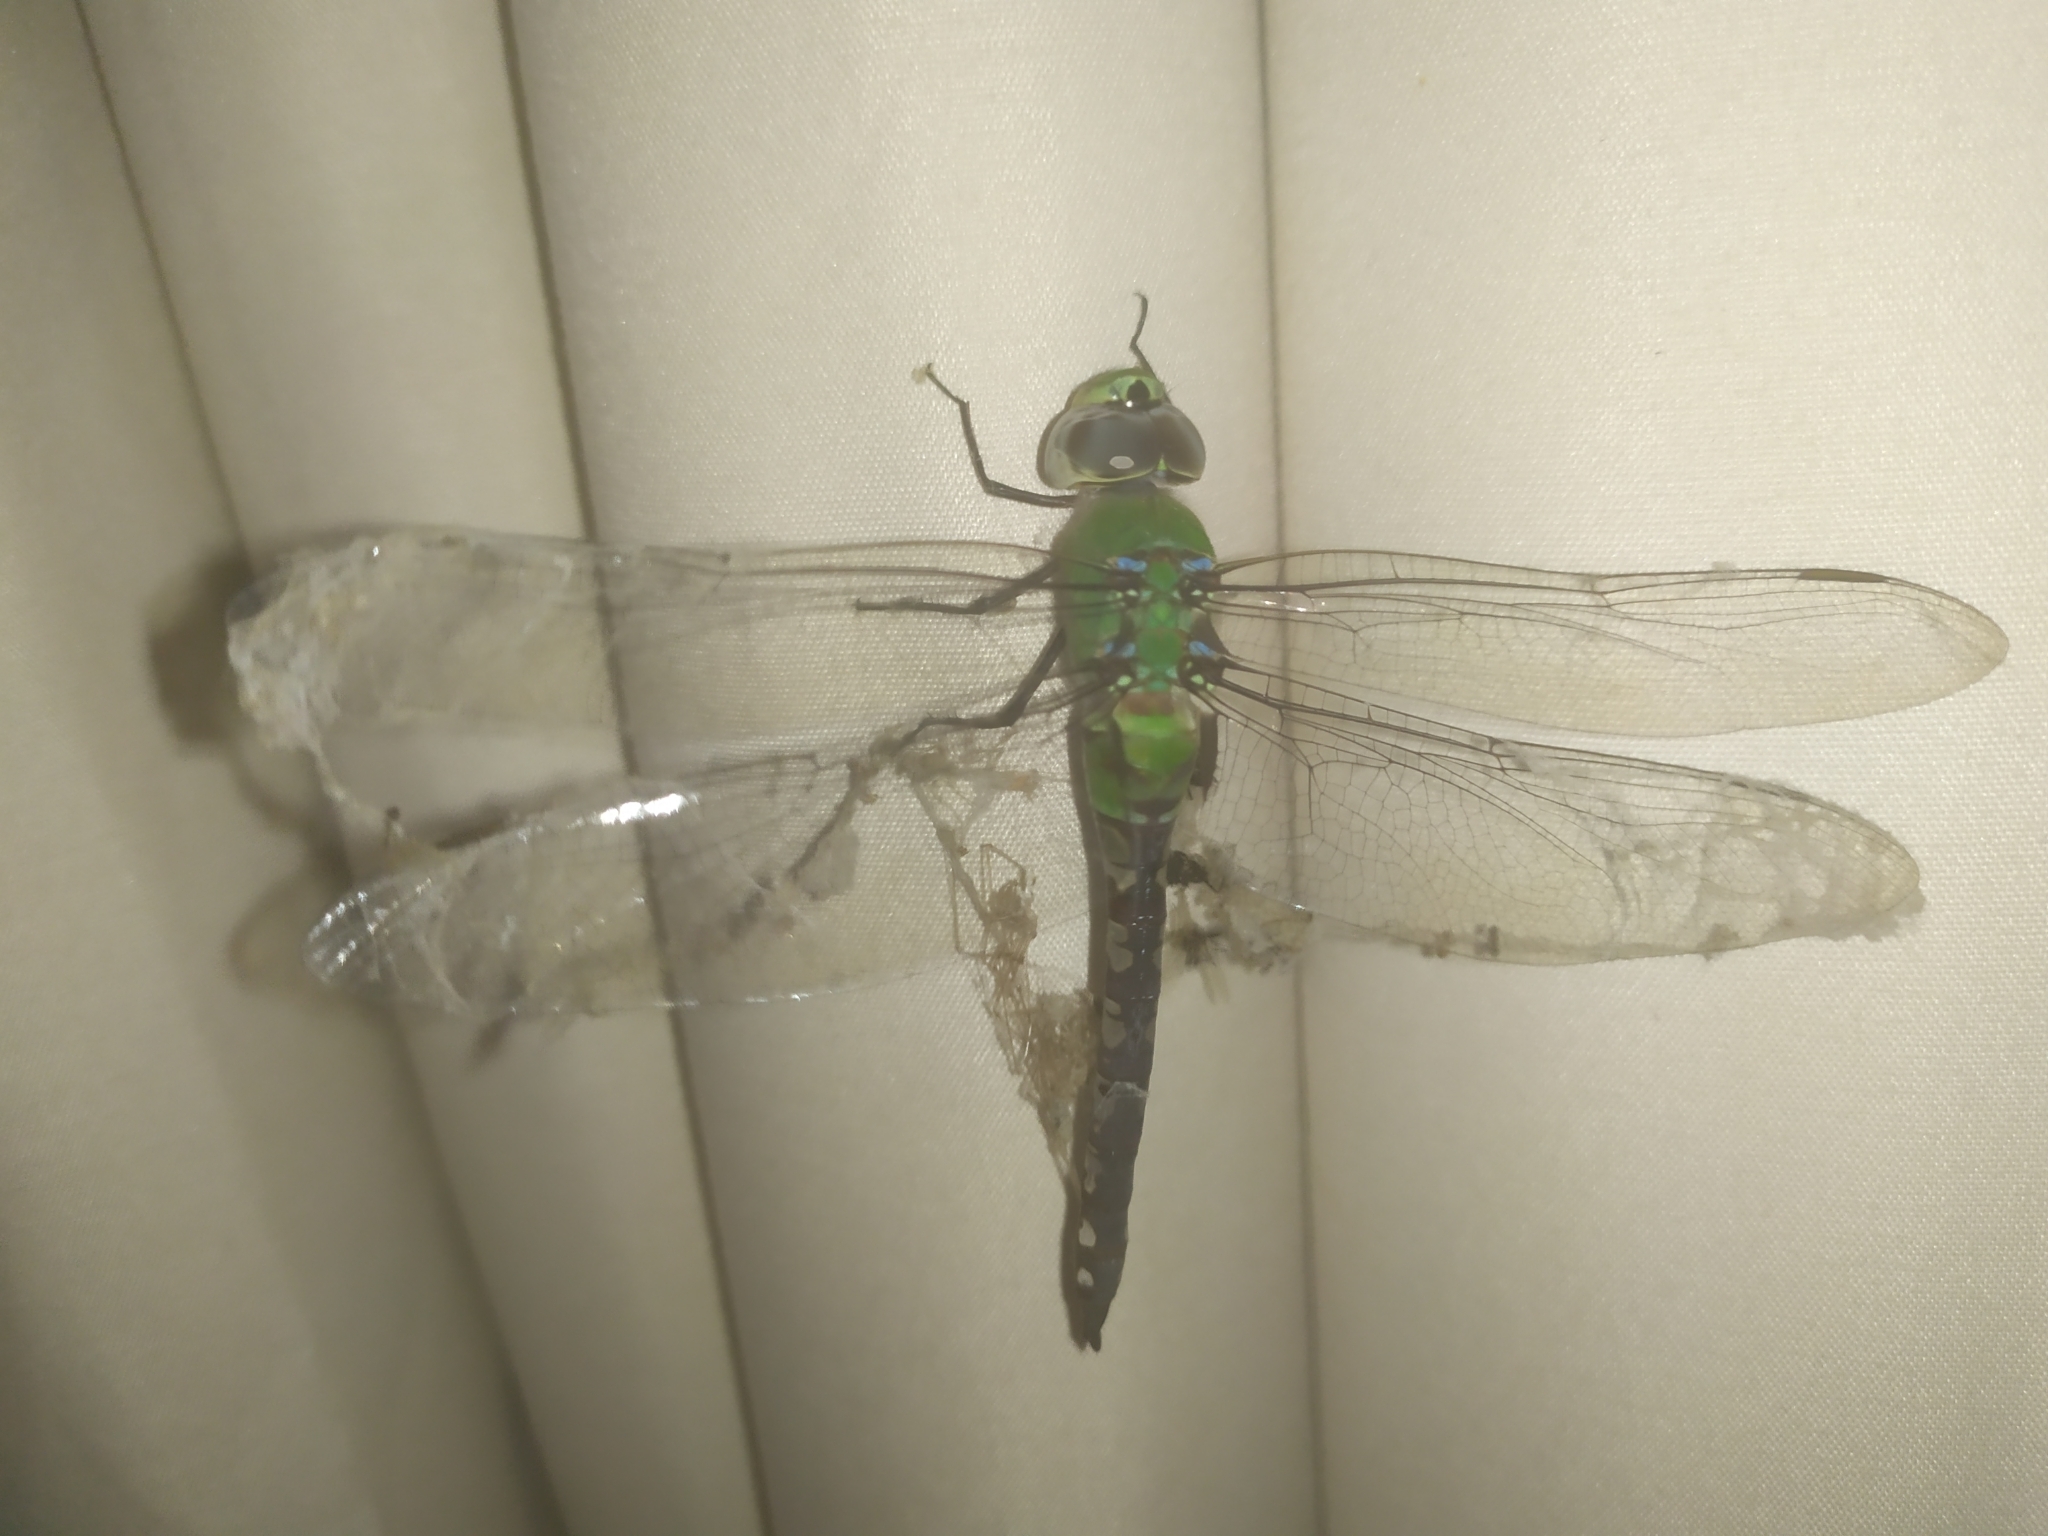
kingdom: Animalia
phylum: Arthropoda
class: Insecta
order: Odonata
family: Aeshnidae
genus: Anax
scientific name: Anax amazili
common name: Amazon darner
